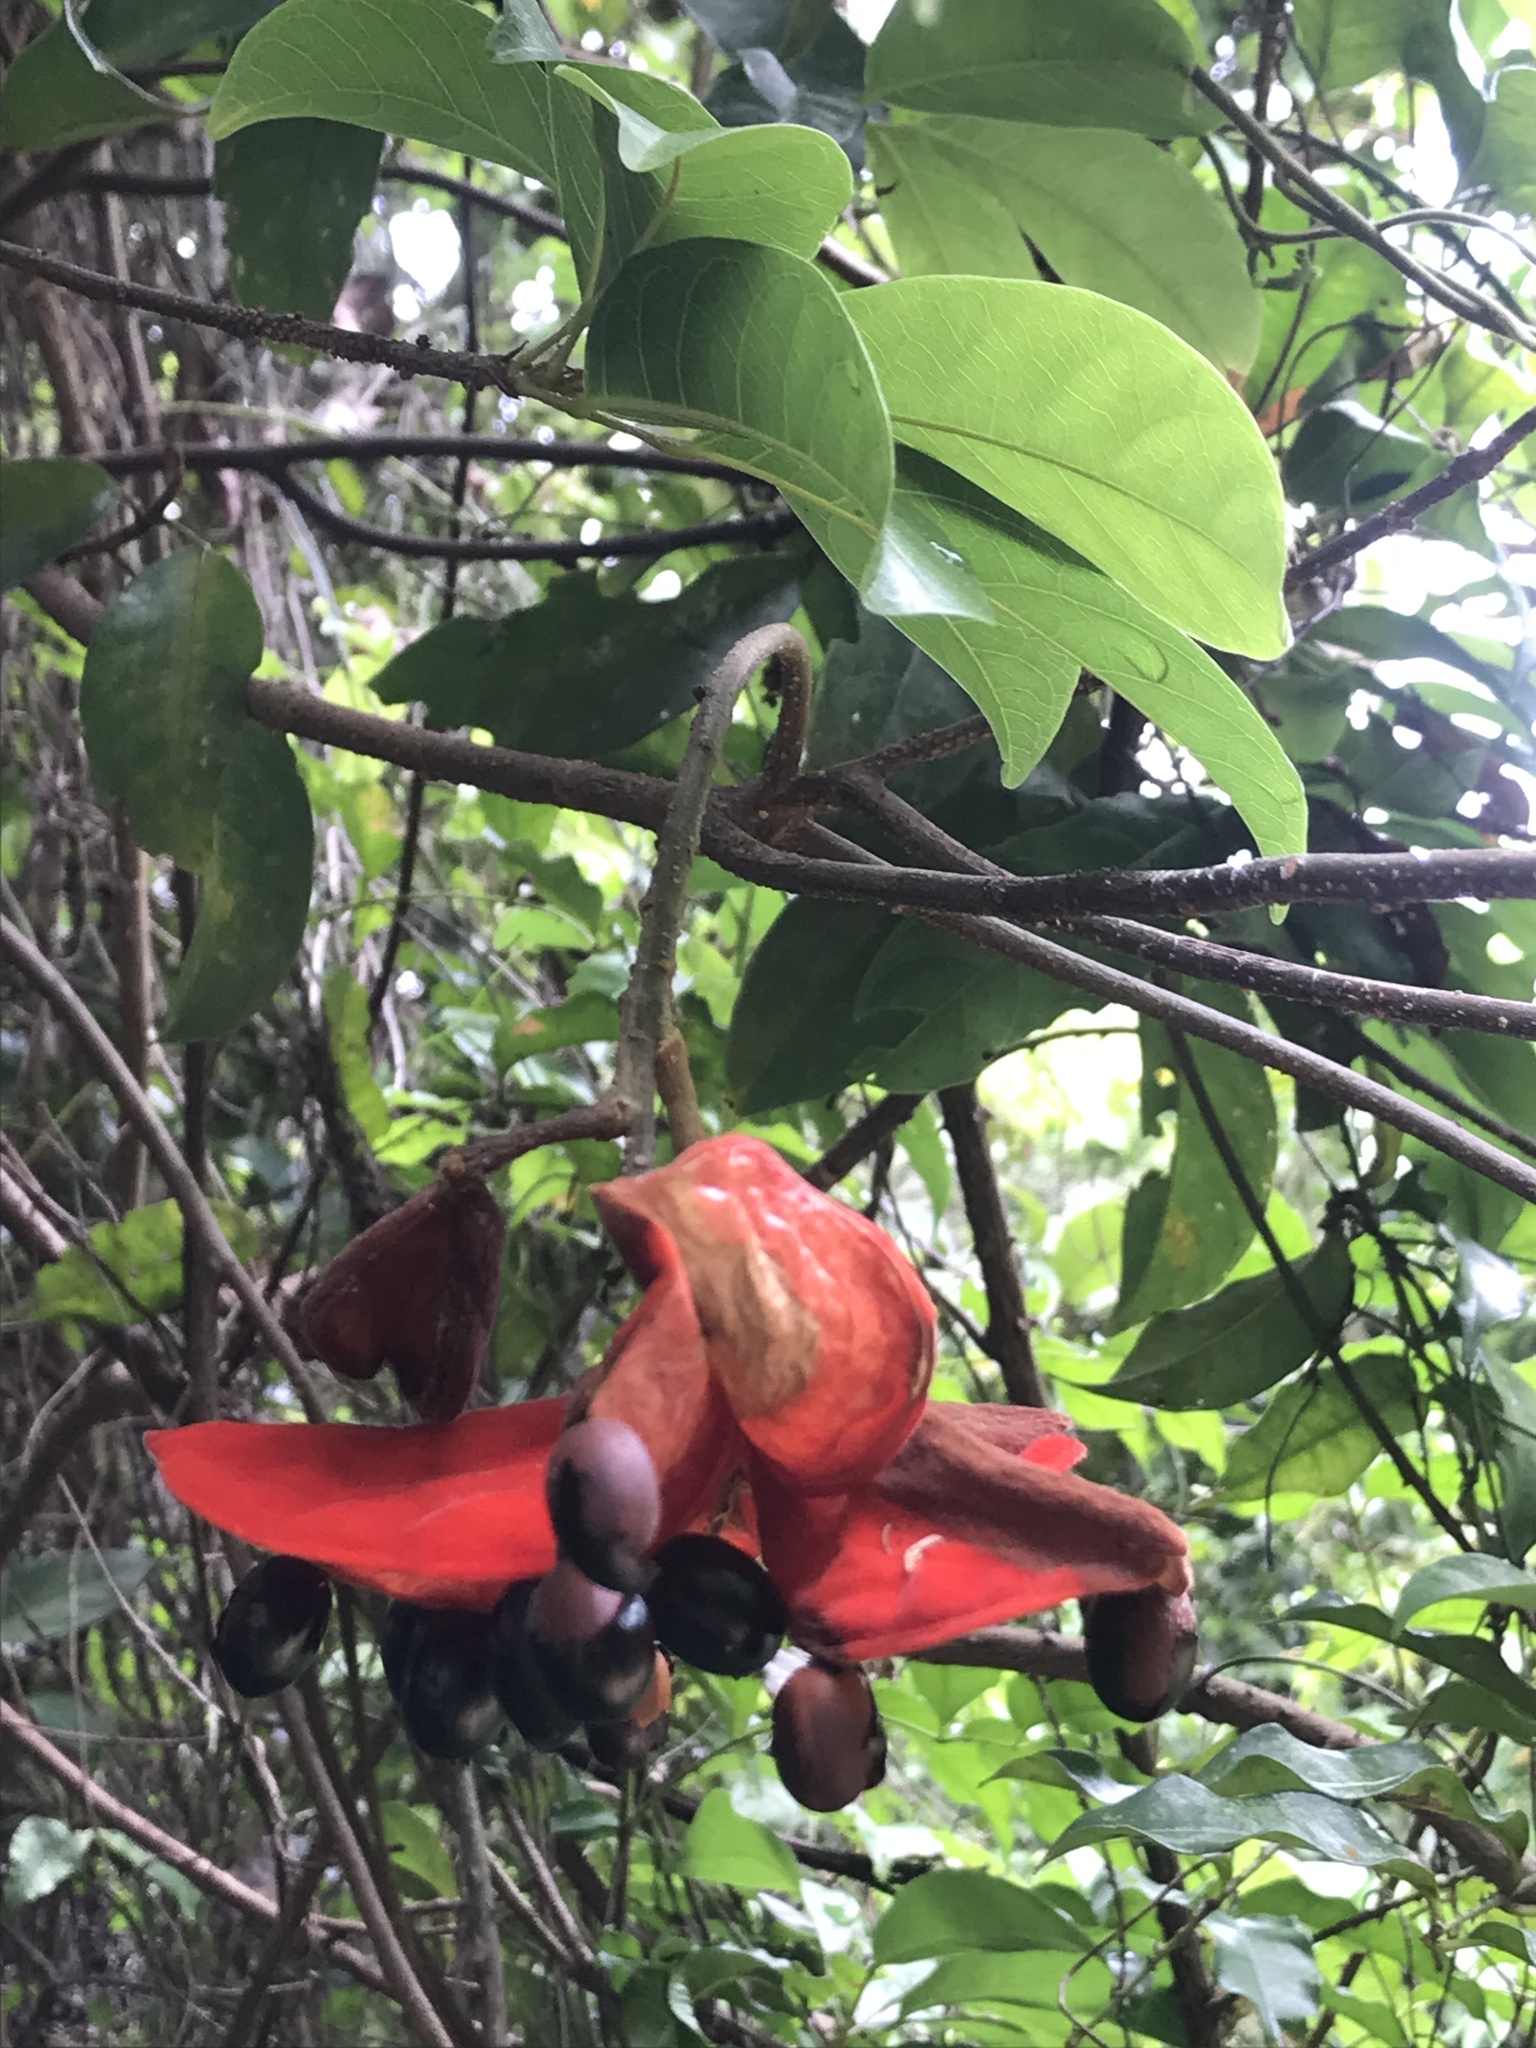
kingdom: Plantae
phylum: Tracheophyta
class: Magnoliopsida
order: Malvales
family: Malvaceae
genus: Sterculia
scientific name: Sterculia lanceolata
